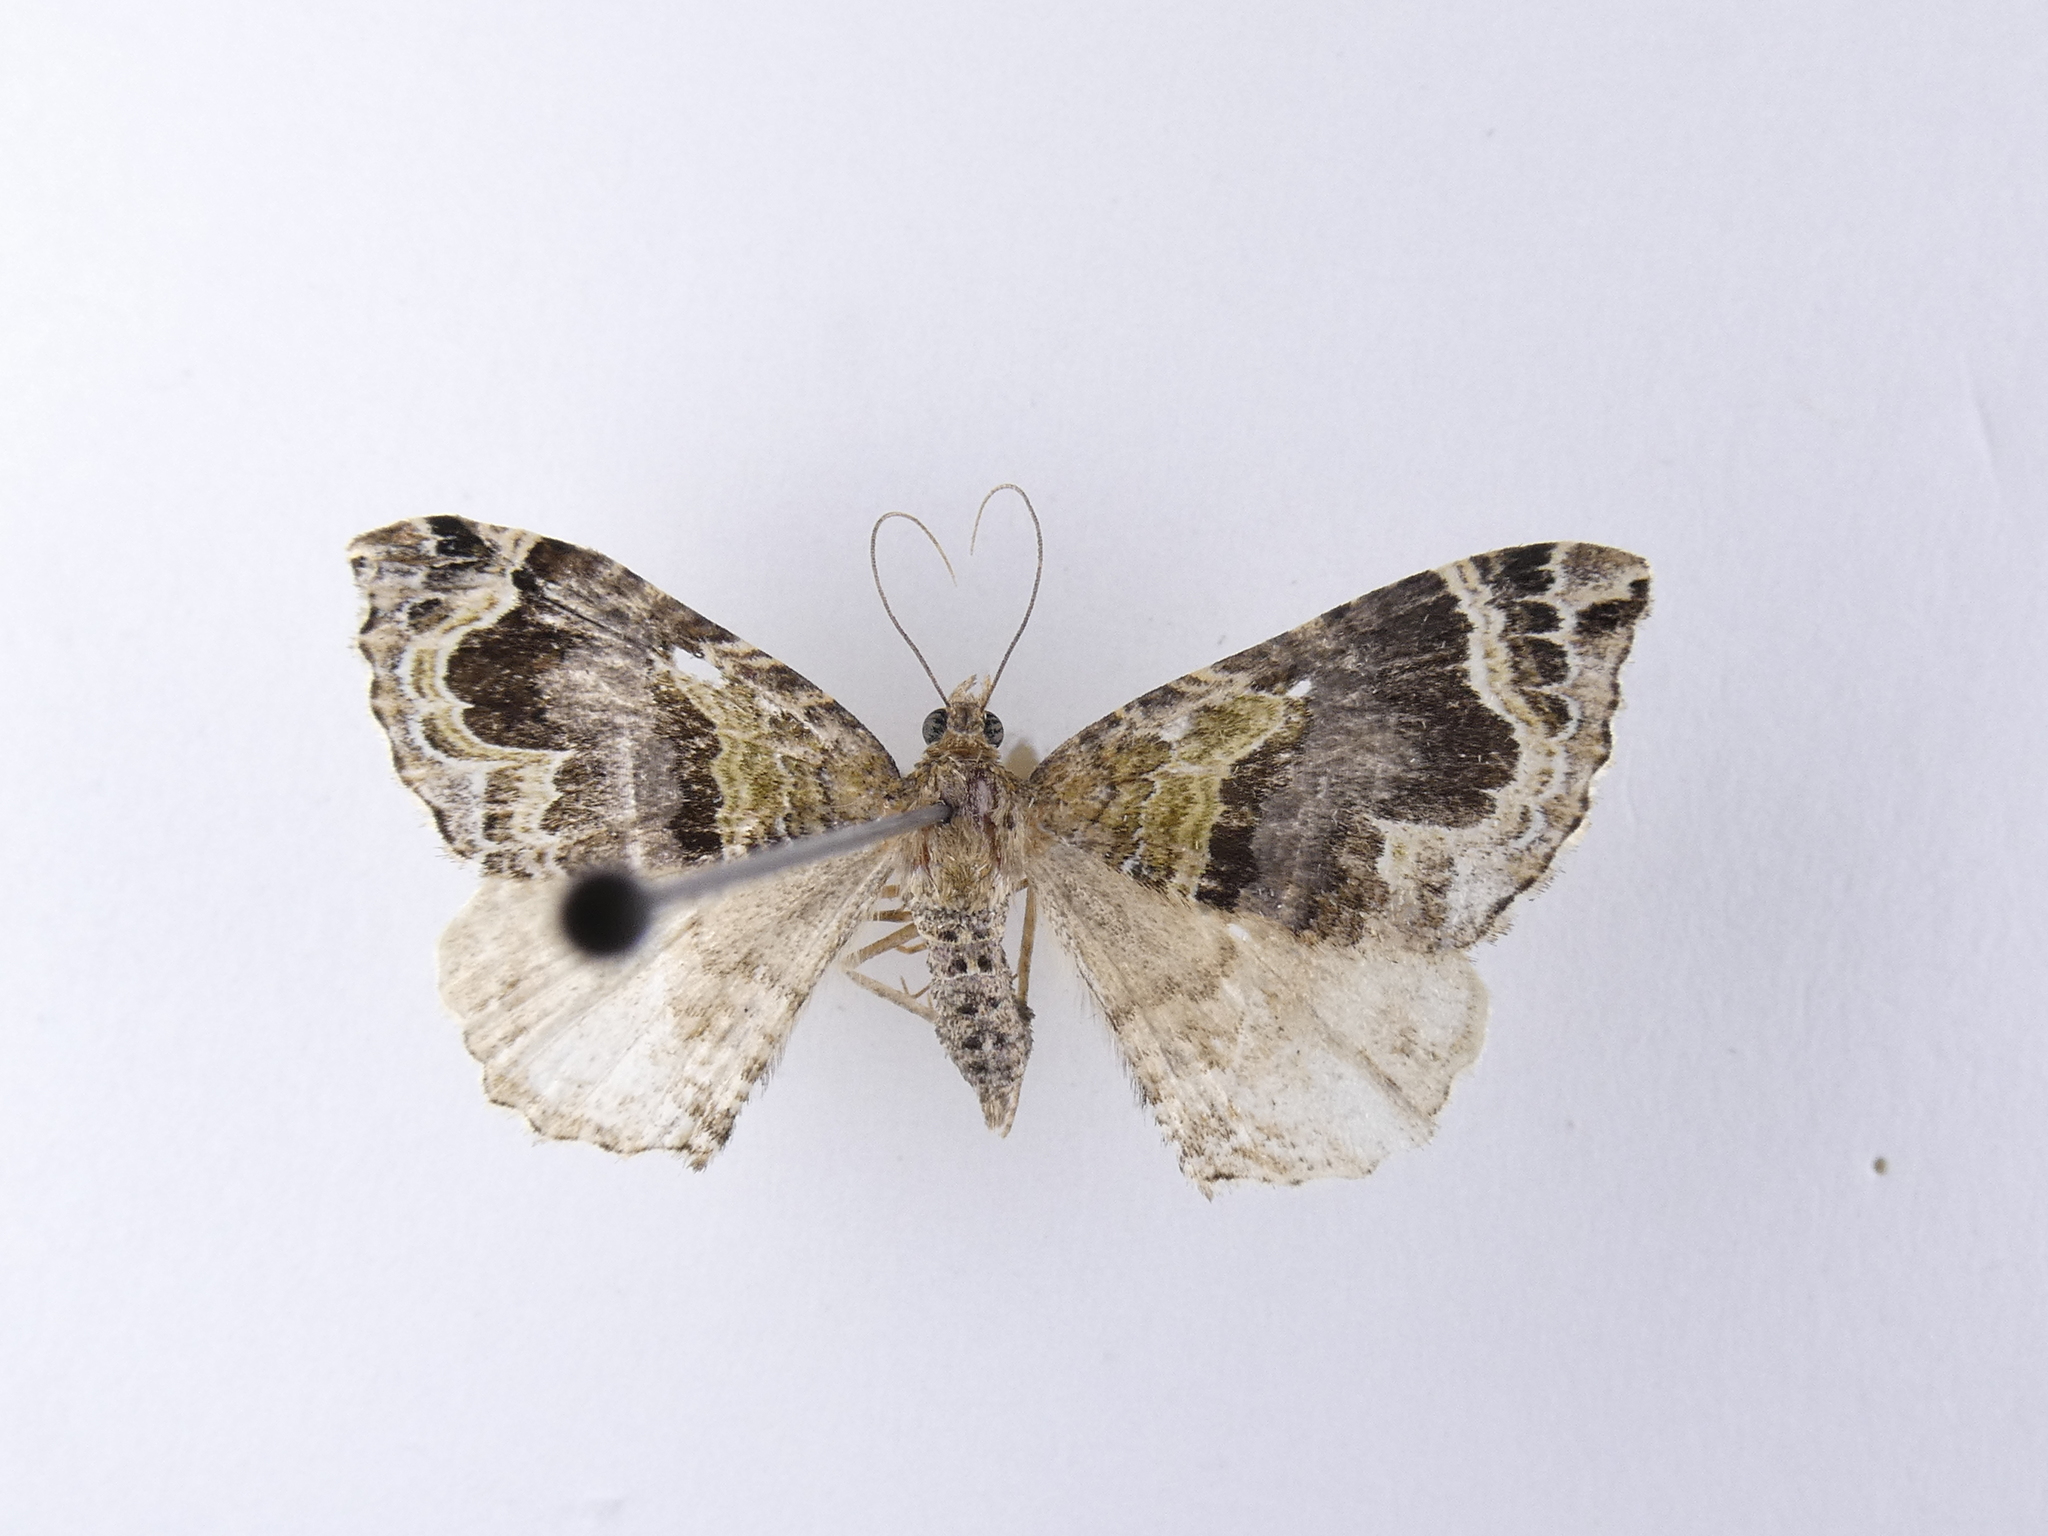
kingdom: Animalia
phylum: Arthropoda
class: Insecta
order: Lepidoptera
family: Geometridae
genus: Hydriomena
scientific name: Hydriomena rixata
